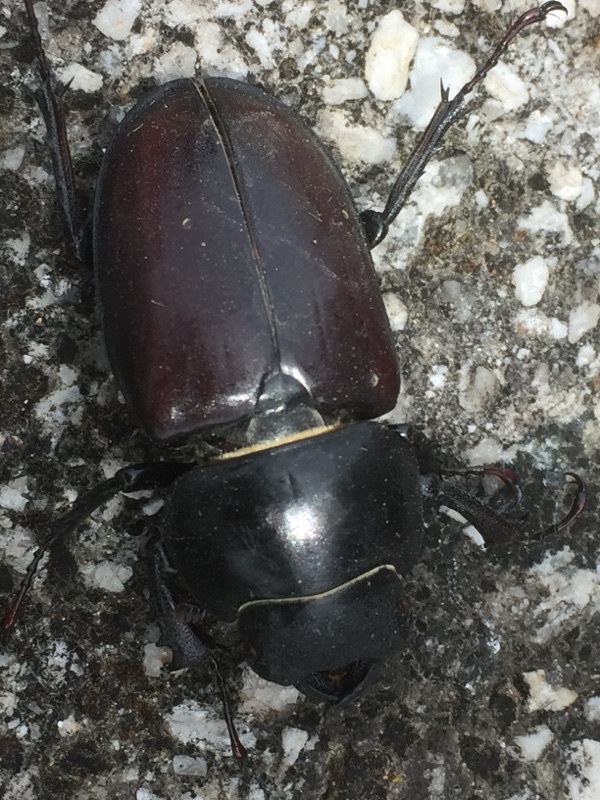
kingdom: Animalia
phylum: Arthropoda
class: Insecta
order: Coleoptera
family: Lucanidae
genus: Lucanus
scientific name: Lucanus cervus
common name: Stag beetle
